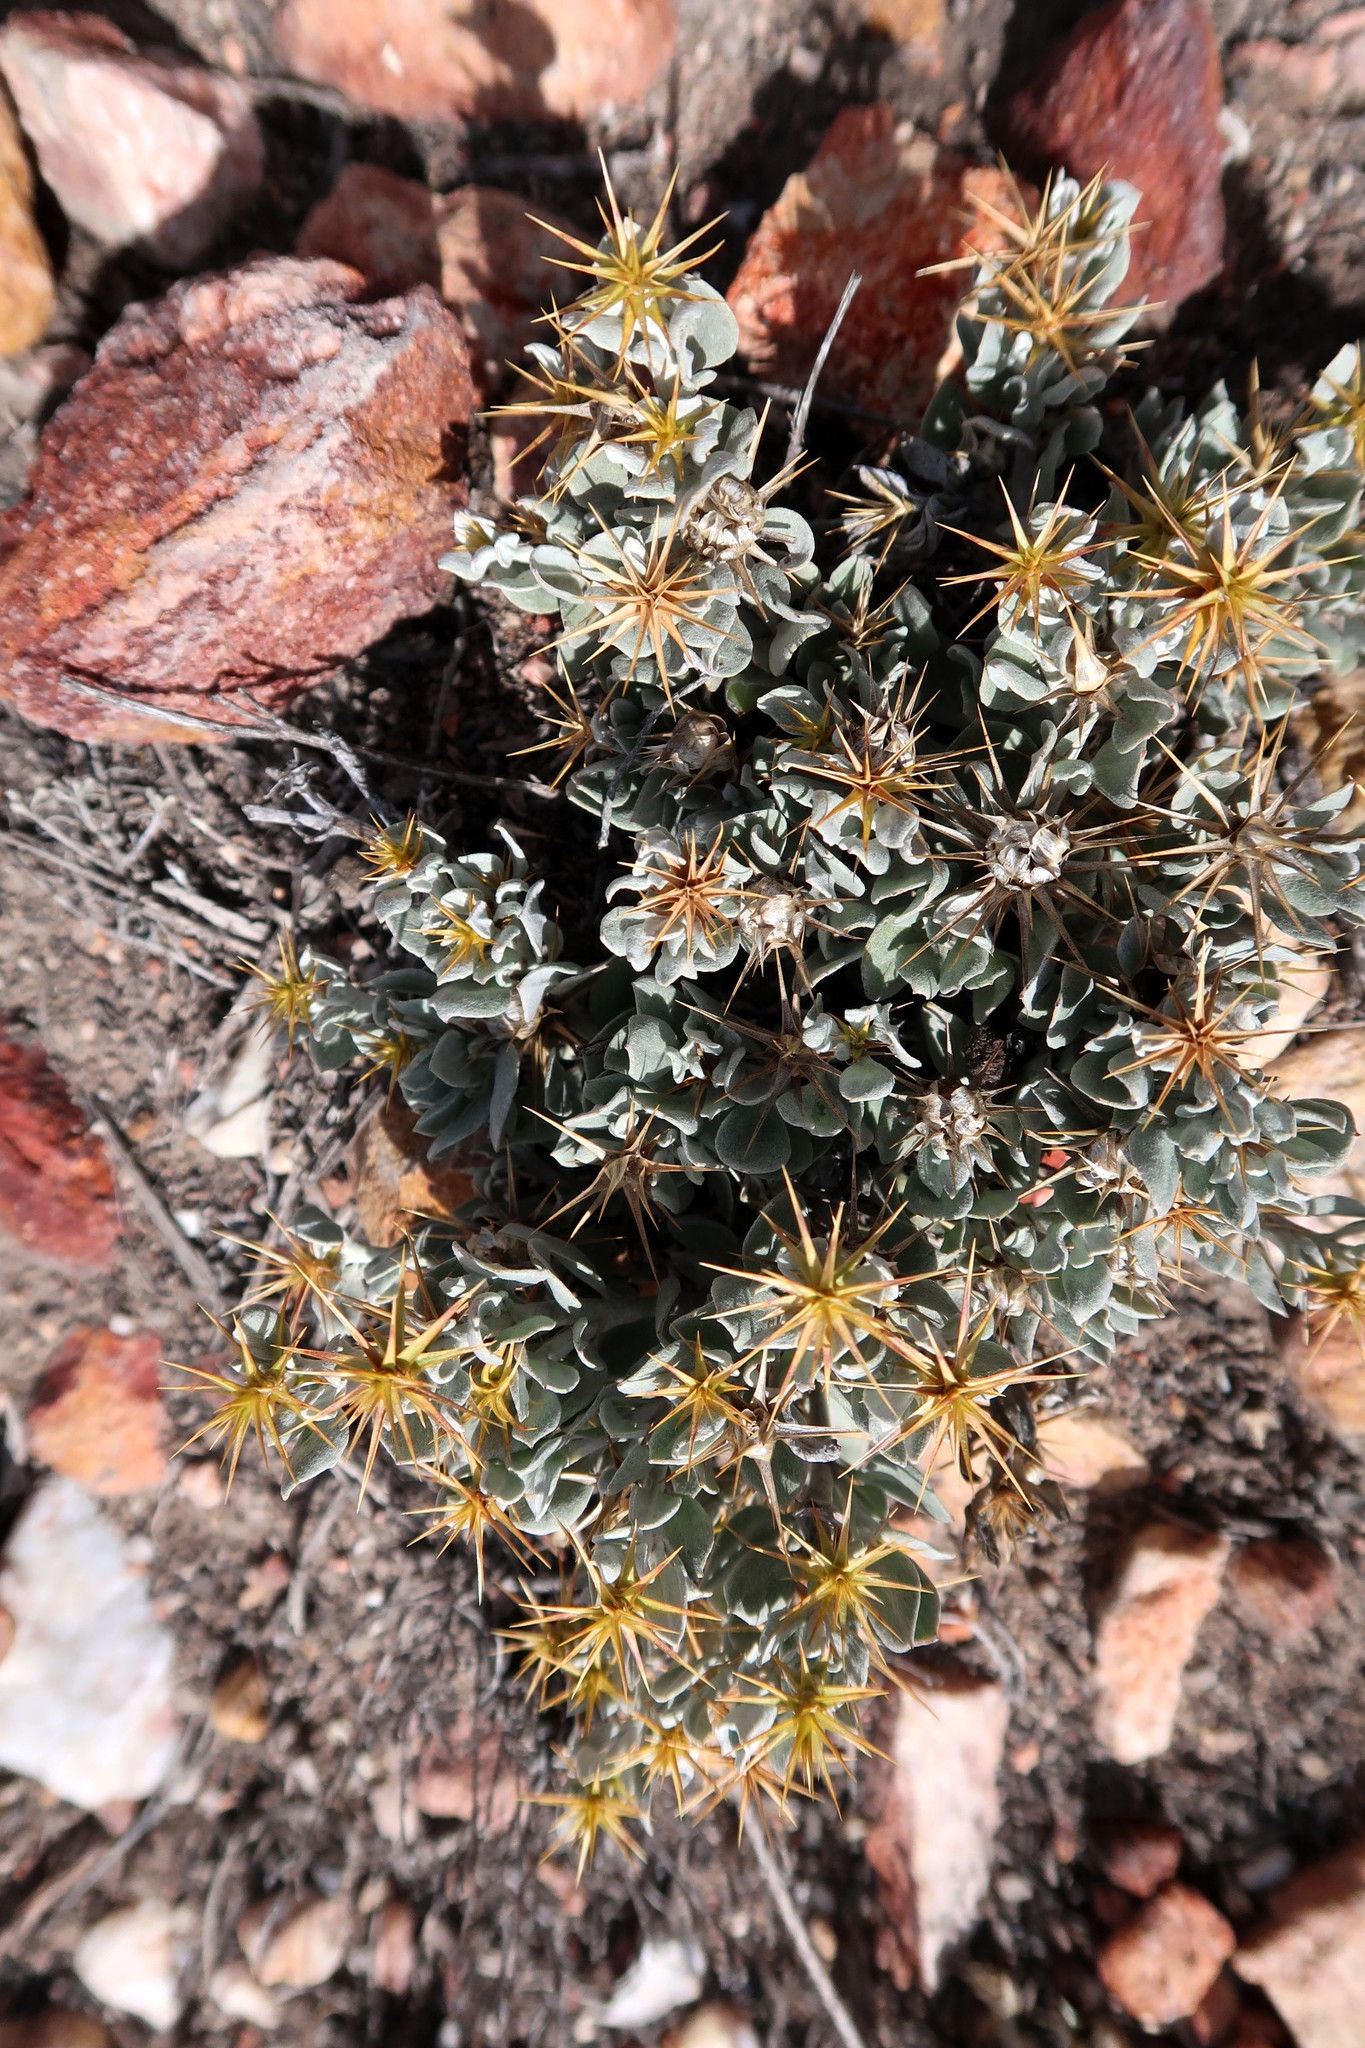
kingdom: Plantae
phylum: Tracheophyta
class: Magnoliopsida
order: Asterales
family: Asteraceae
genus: Macledium
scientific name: Macledium spinosum
